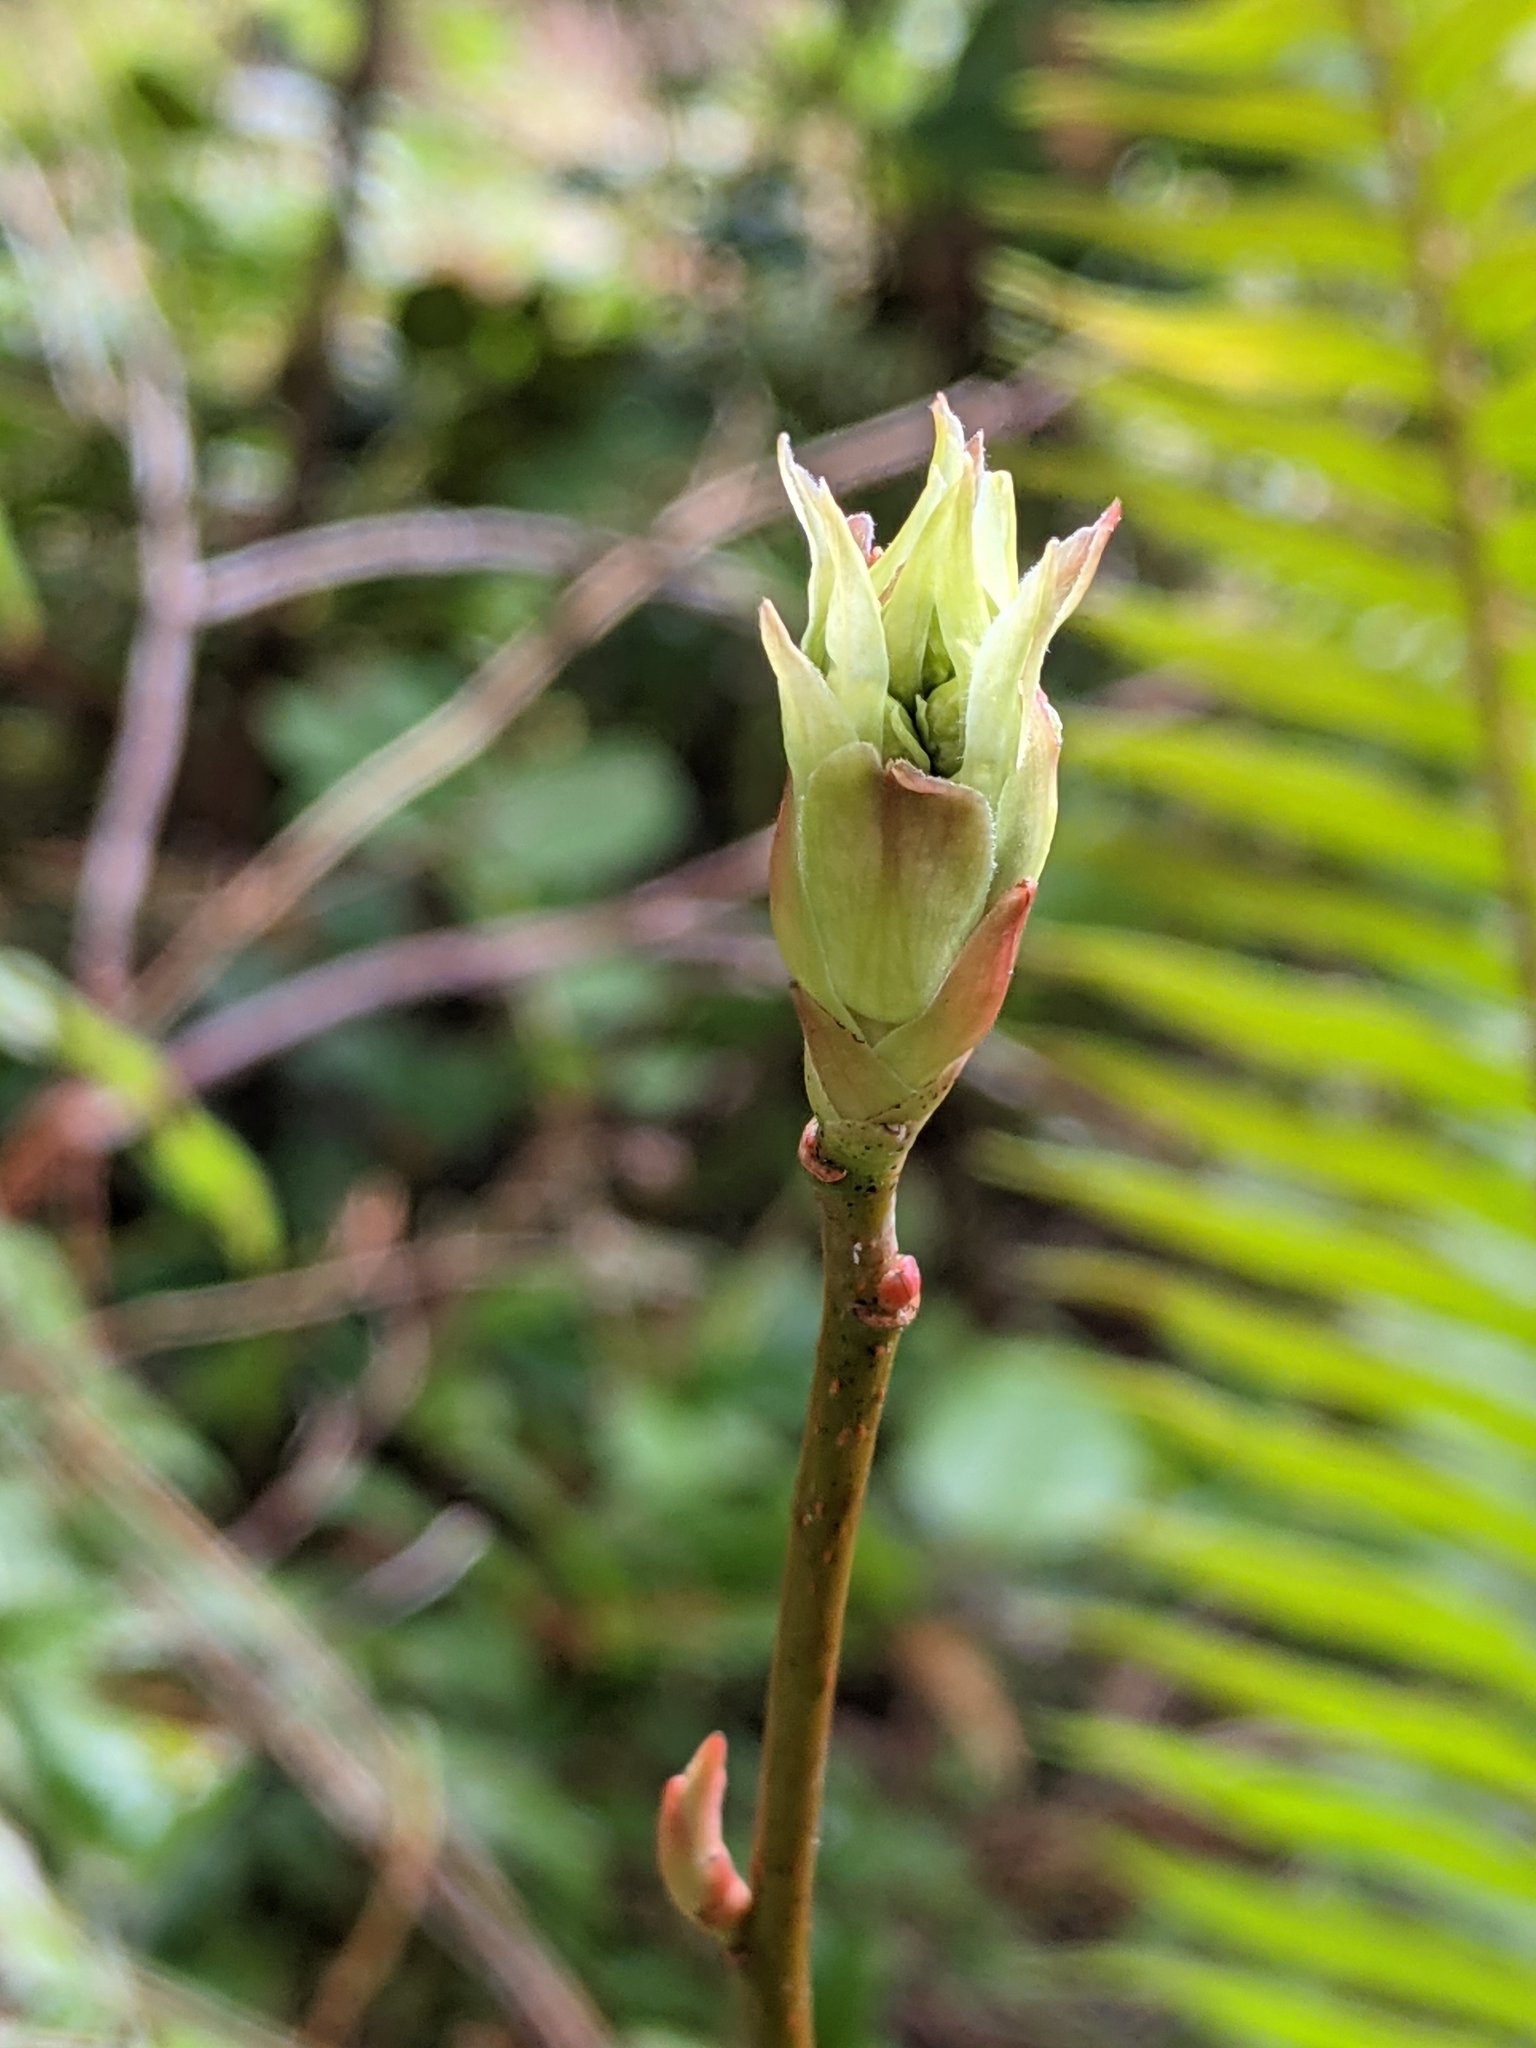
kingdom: Plantae
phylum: Tracheophyta
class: Magnoliopsida
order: Rosales
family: Rosaceae
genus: Oemleria
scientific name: Oemleria cerasiformis
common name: Osoberry
